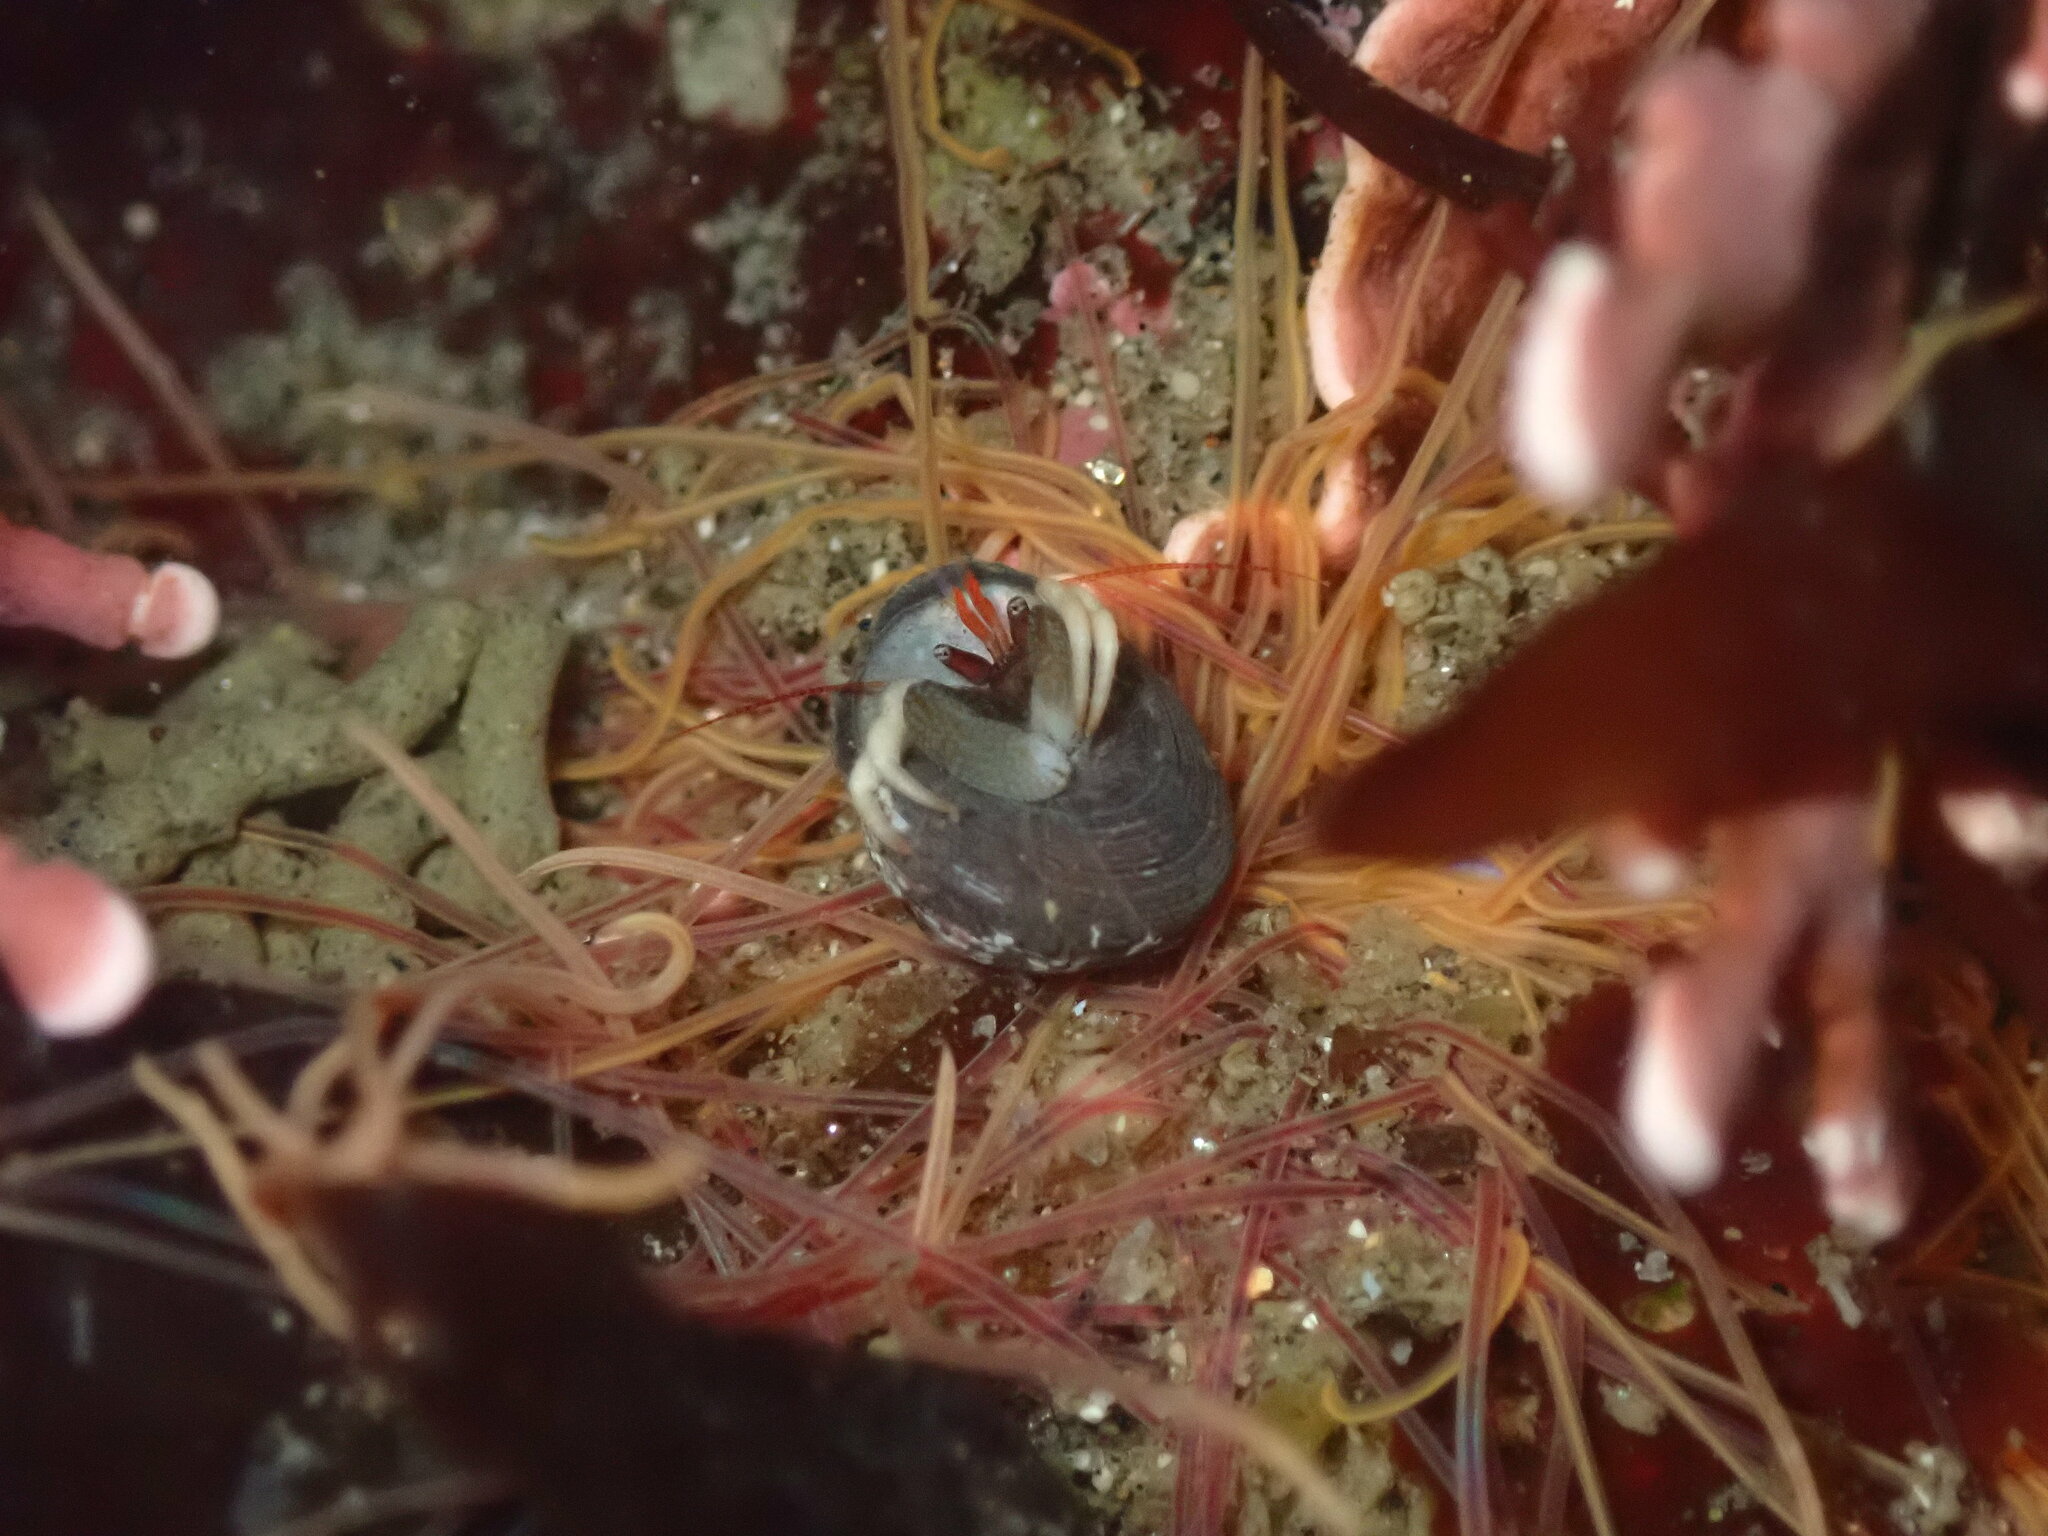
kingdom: Animalia
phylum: Arthropoda
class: Malacostraca
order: Decapoda
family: Paguridae
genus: Pagurus
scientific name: Pagurus granosimanus
